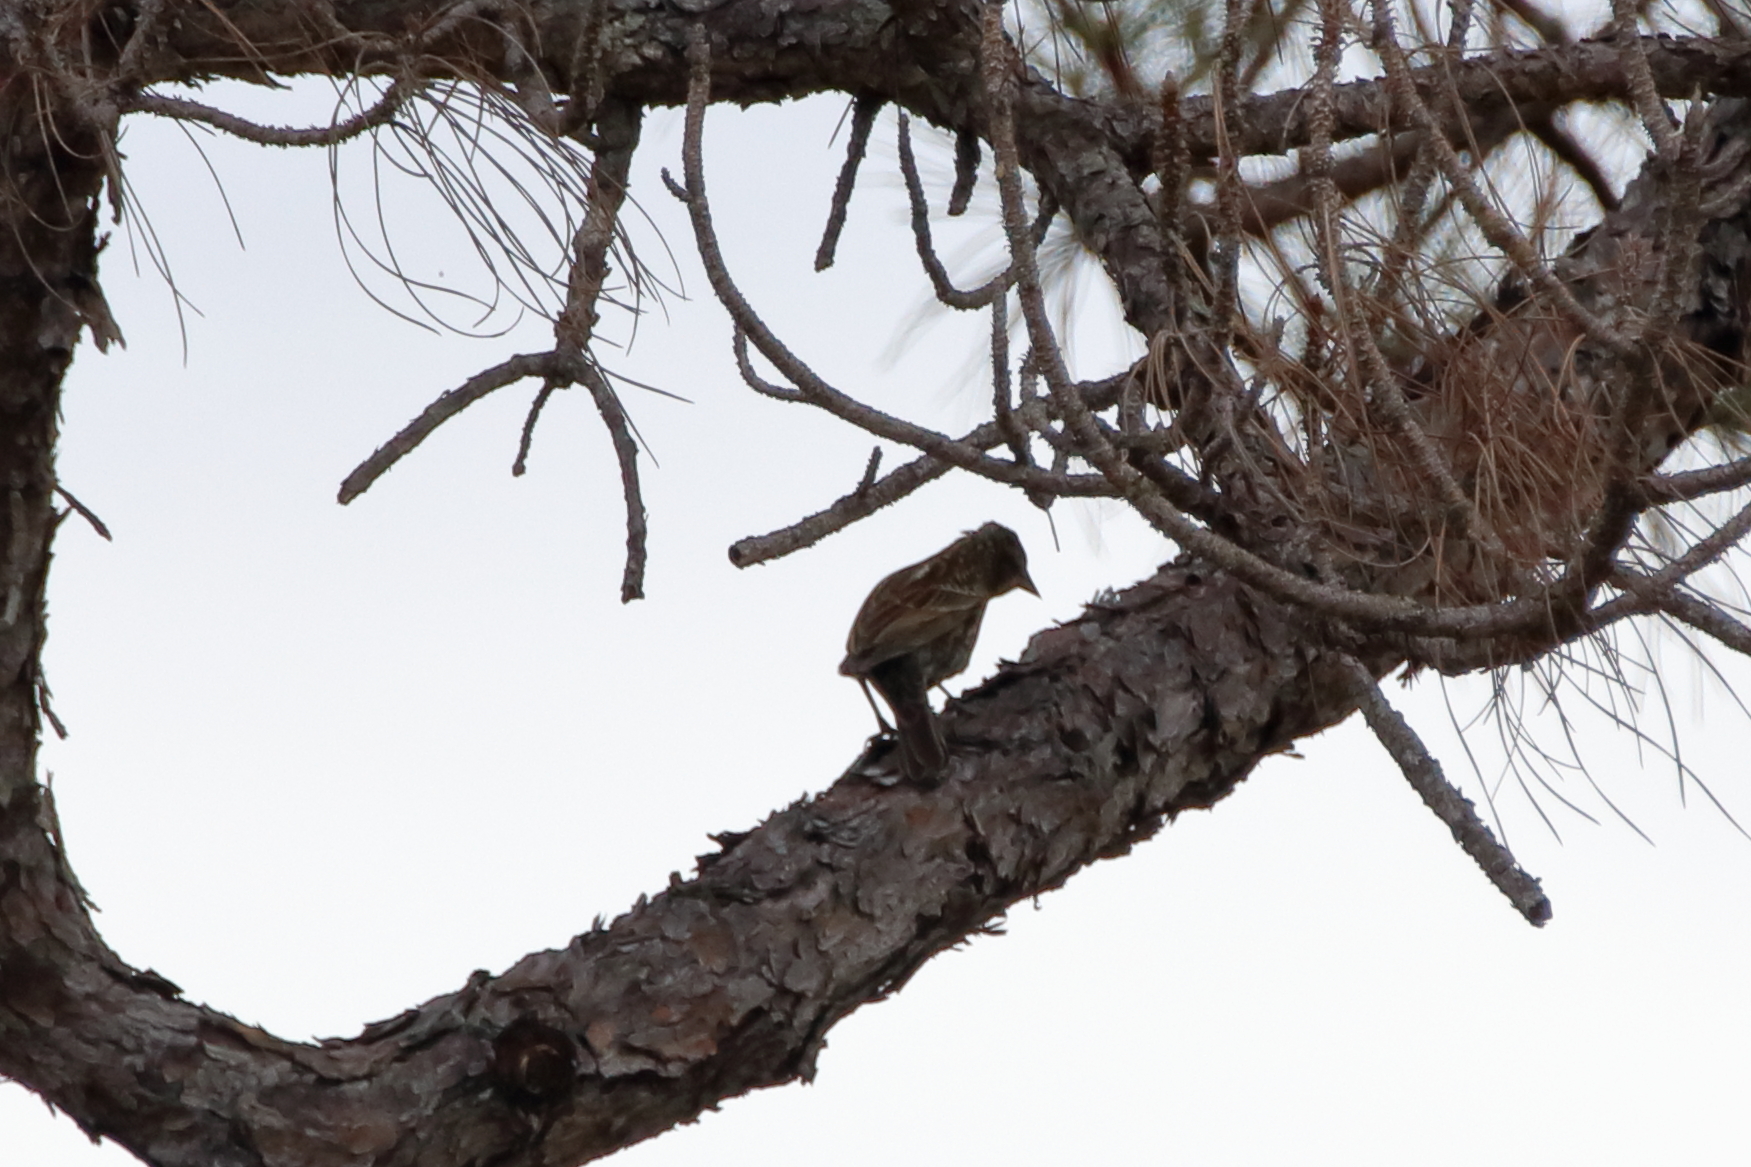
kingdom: Animalia
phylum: Chordata
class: Aves
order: Passeriformes
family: Icteridae
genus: Agelaius
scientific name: Agelaius phoeniceus
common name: Red-winged blackbird
